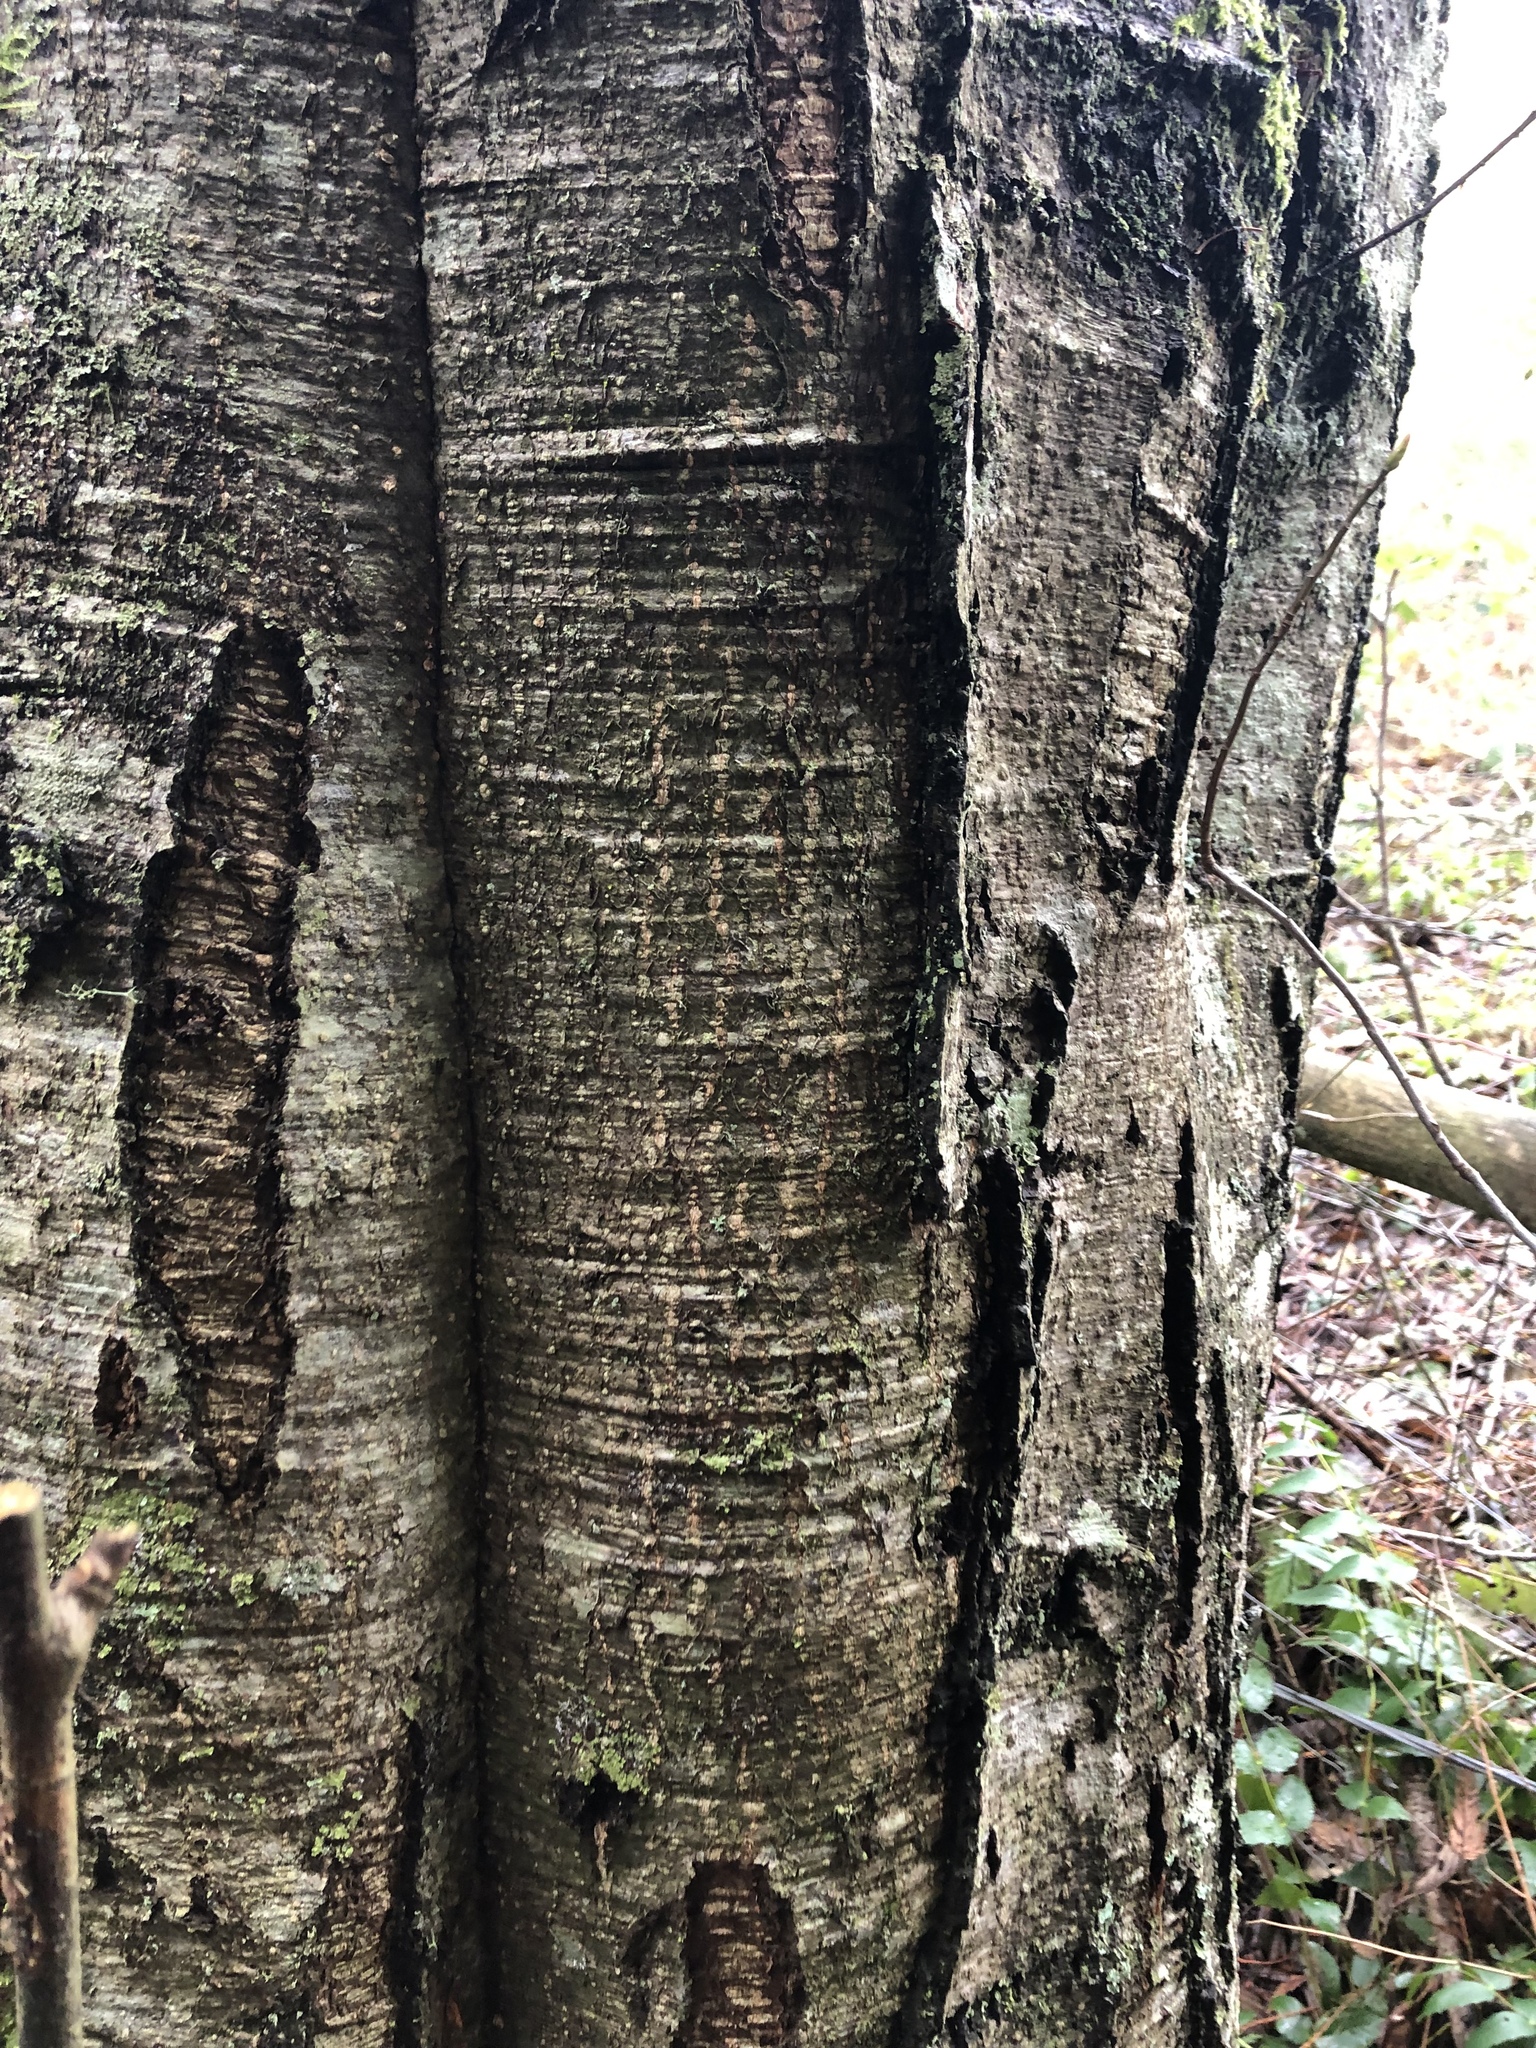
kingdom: Plantae
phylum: Tracheophyta
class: Magnoliopsida
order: Fagales
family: Betulaceae
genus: Alnus
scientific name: Alnus rubra
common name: Red alder
